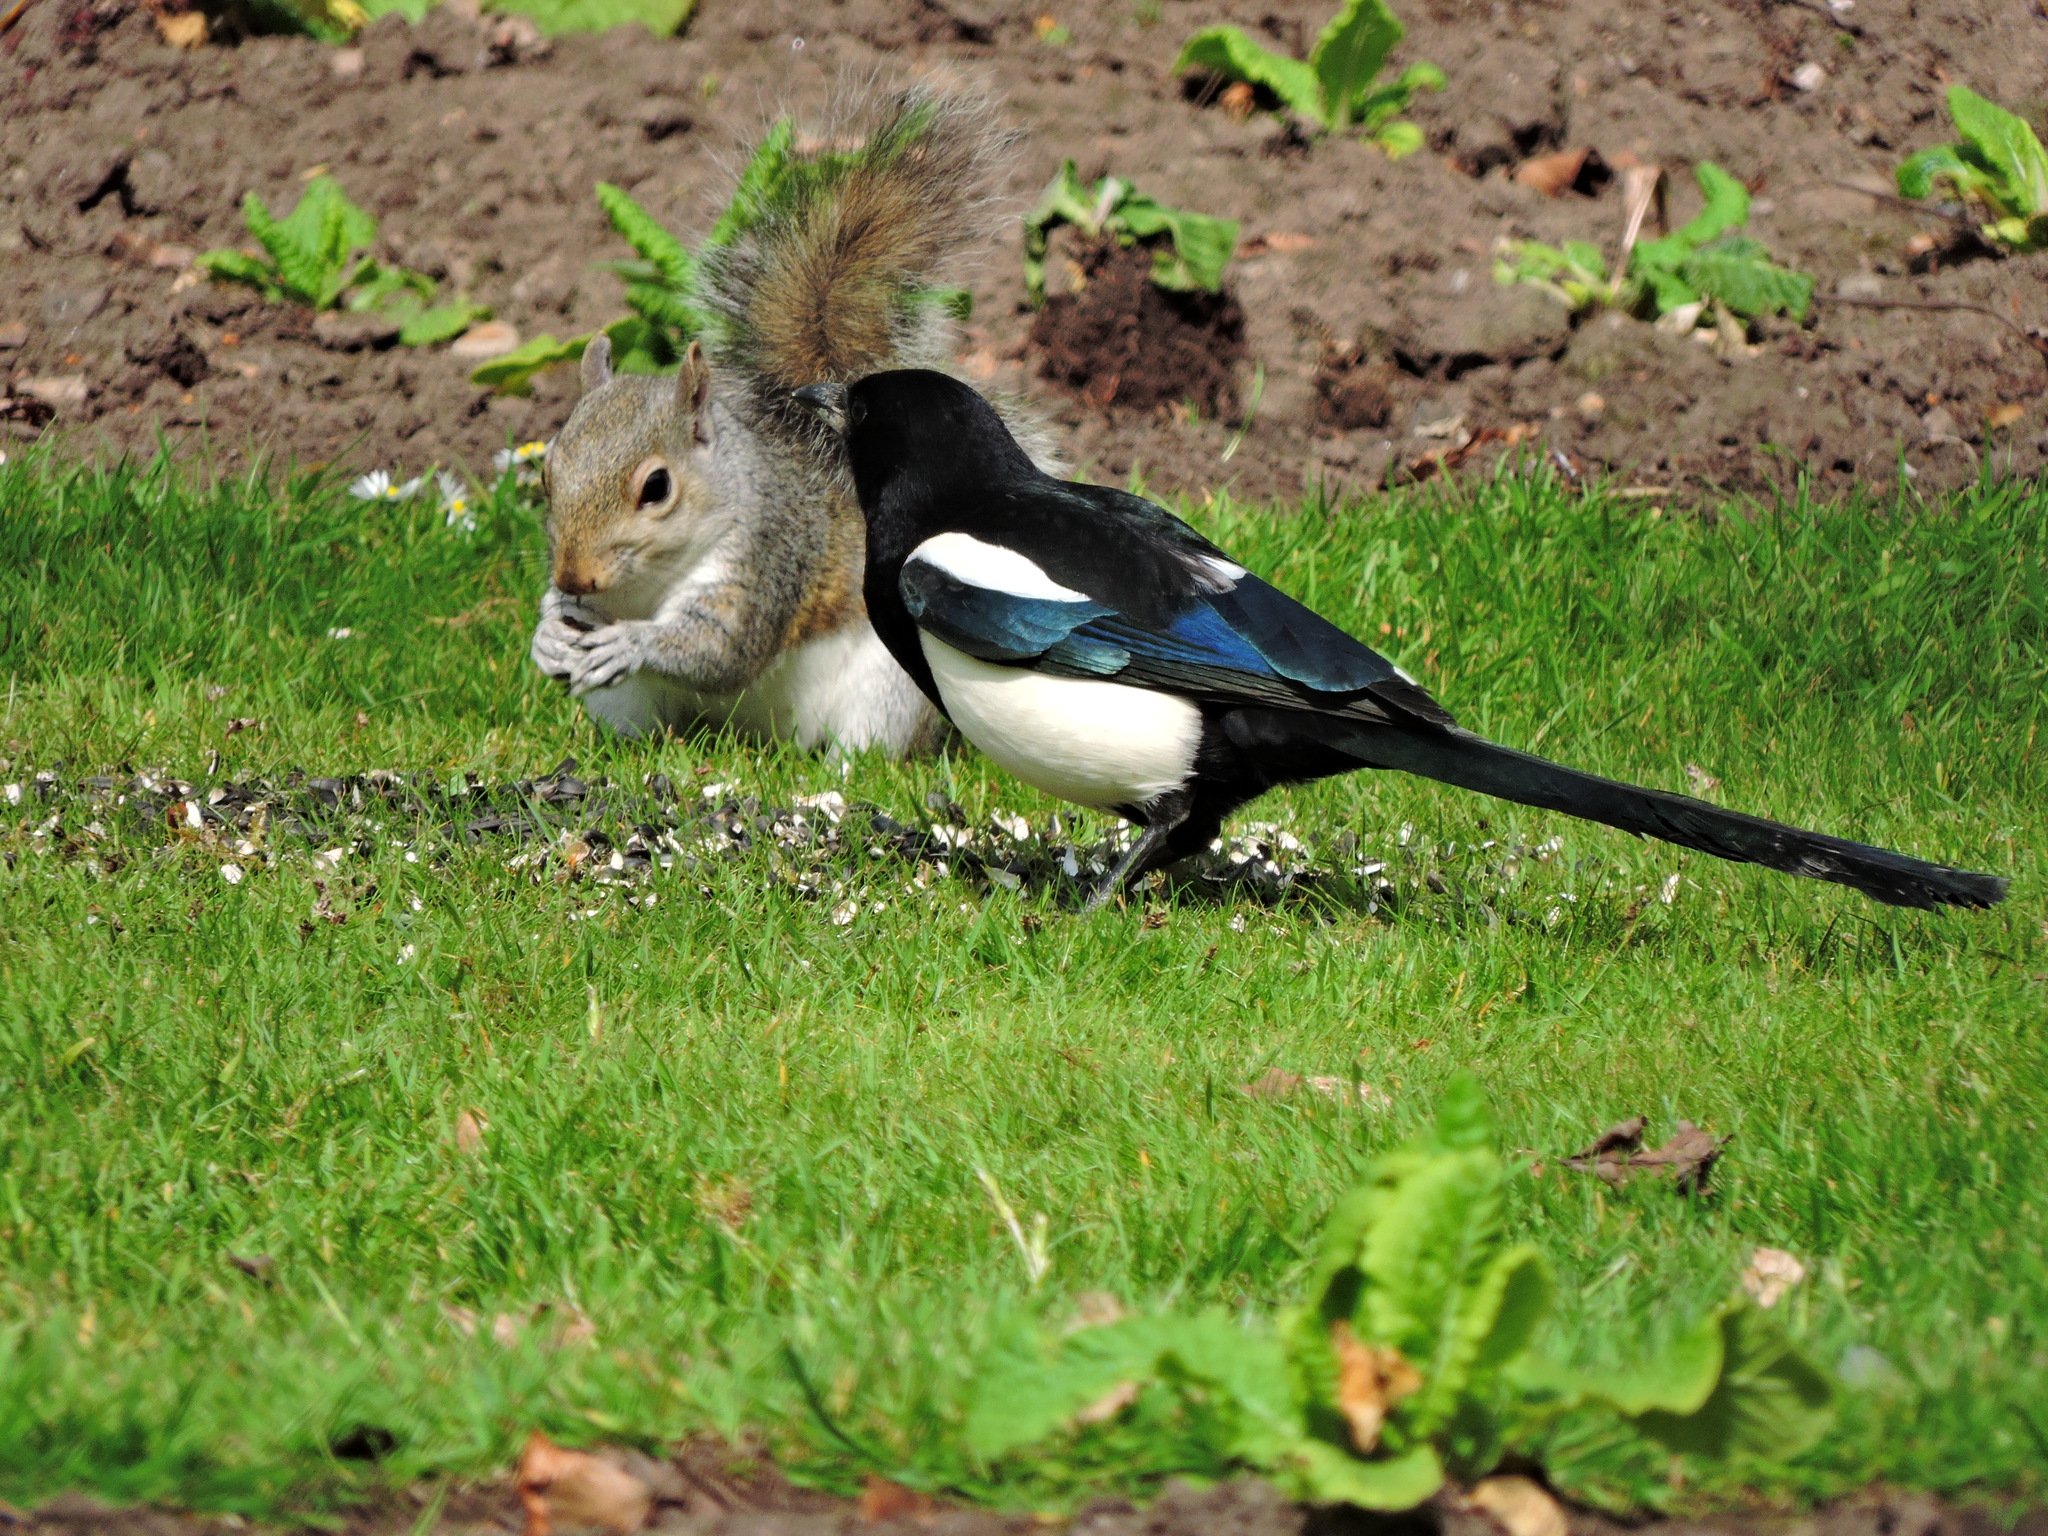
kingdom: Animalia
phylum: Chordata
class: Mammalia
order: Rodentia
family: Sciuridae
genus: Sciurus
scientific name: Sciurus carolinensis
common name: Eastern gray squirrel
